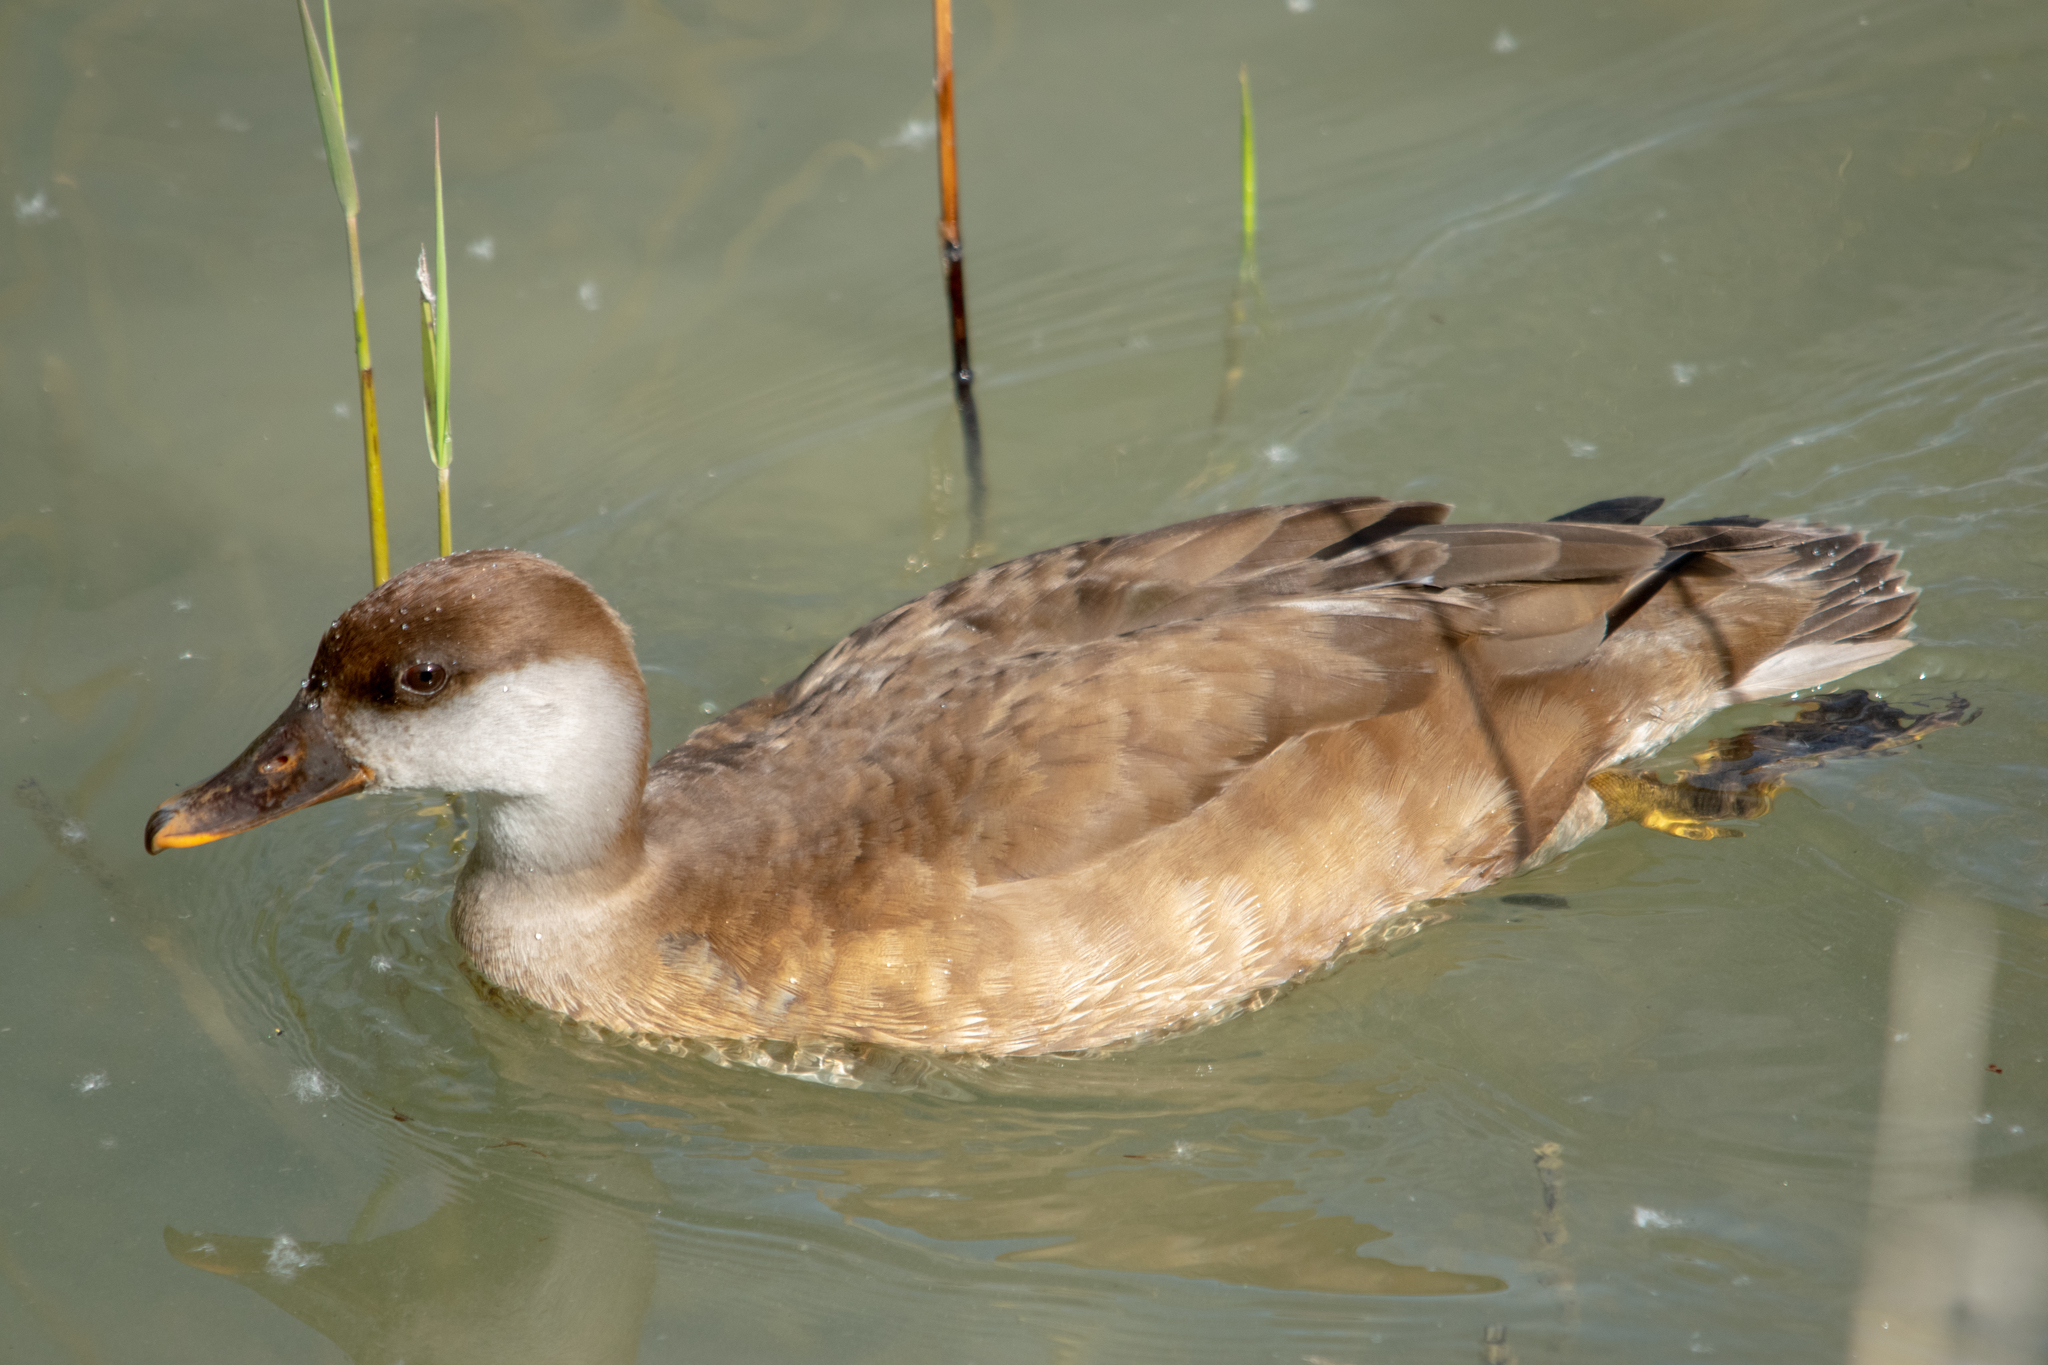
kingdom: Animalia
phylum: Chordata
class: Aves
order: Anseriformes
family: Anatidae
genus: Netta
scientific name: Netta rufina
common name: Red-crested pochard
